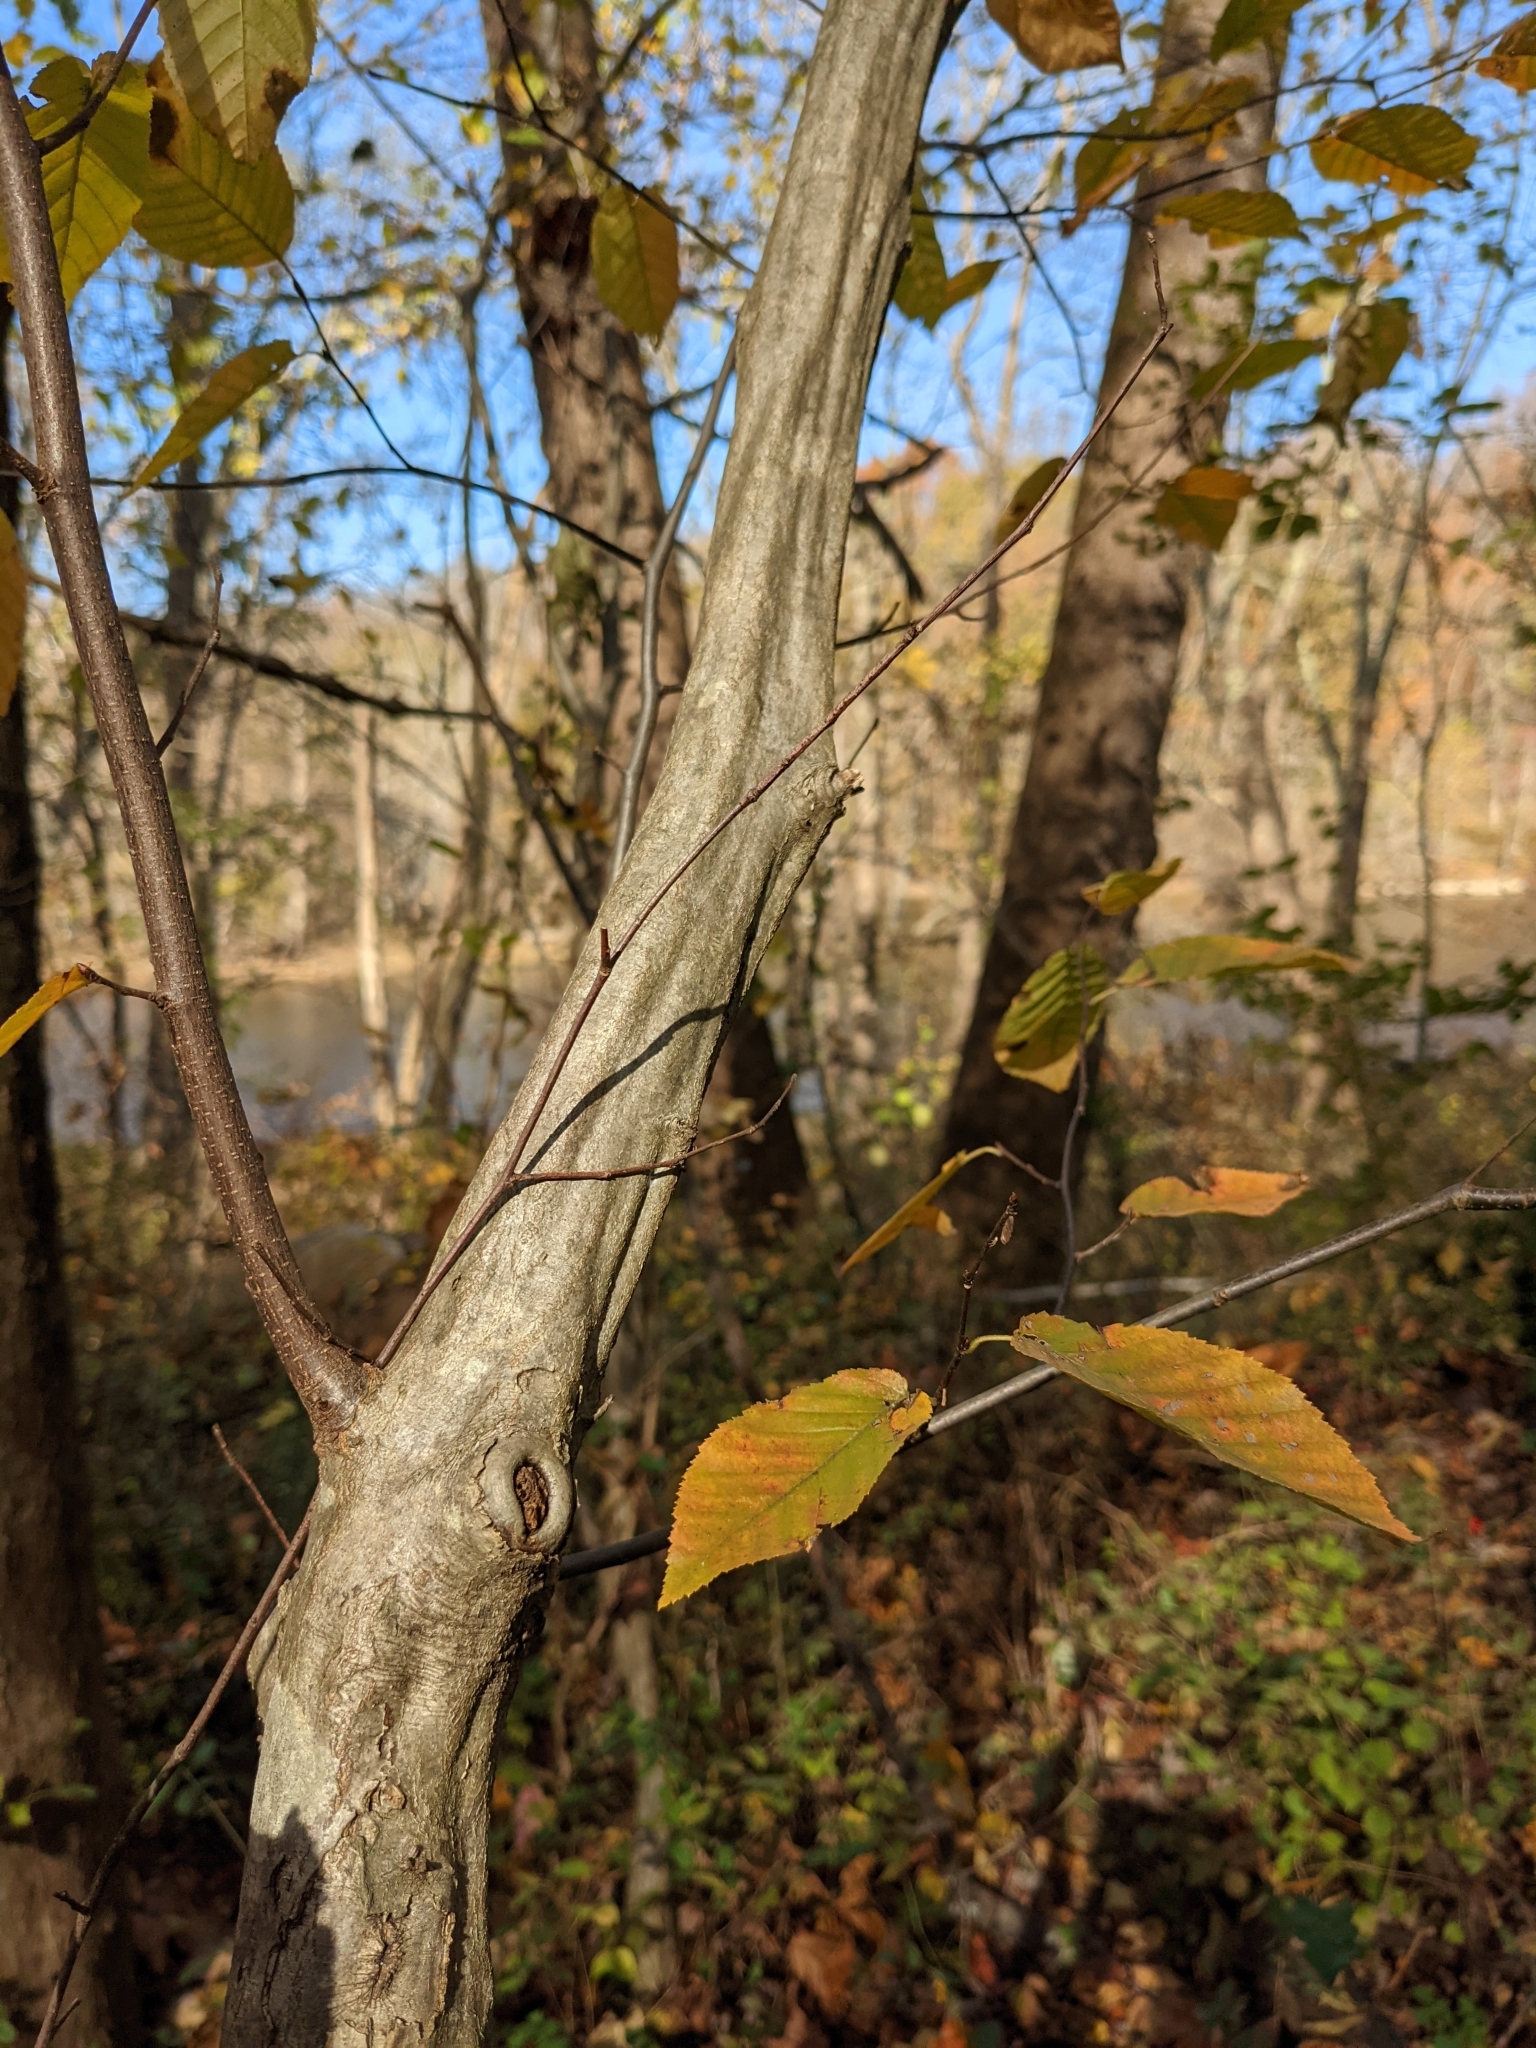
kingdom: Plantae
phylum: Tracheophyta
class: Magnoliopsida
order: Fagales
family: Betulaceae
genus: Carpinus
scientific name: Carpinus caroliniana
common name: American hornbeam
